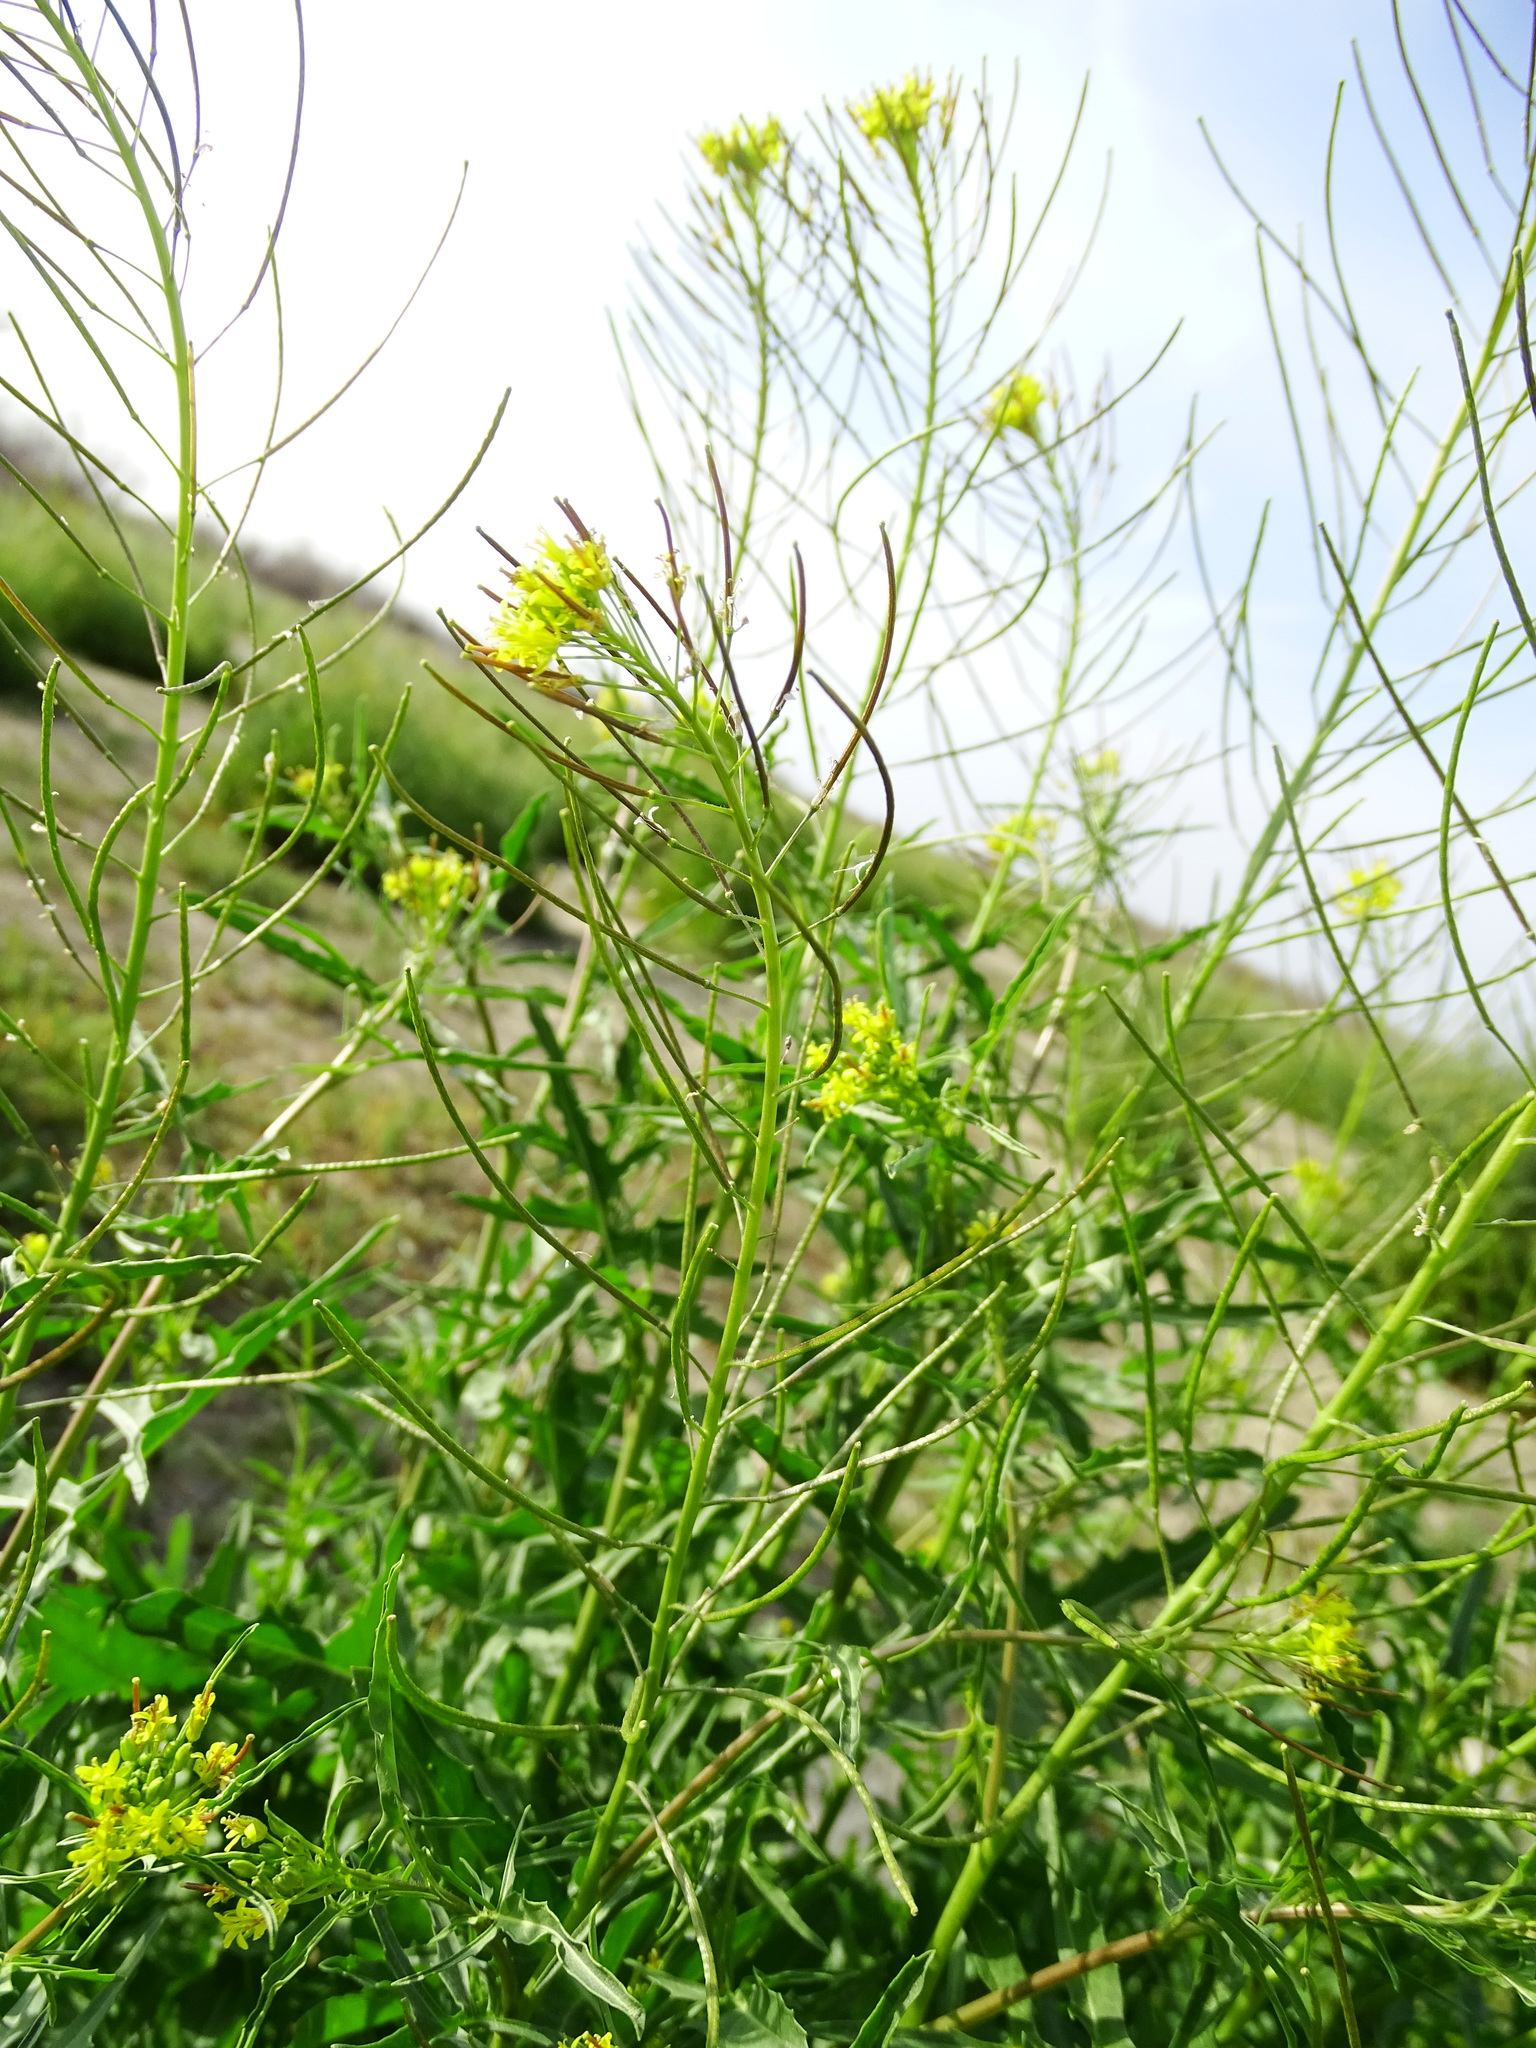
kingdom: Plantae
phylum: Tracheophyta
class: Magnoliopsida
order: Brassicales
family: Brassicaceae
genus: Sisymbrium
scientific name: Sisymbrium irio
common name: London rocket
